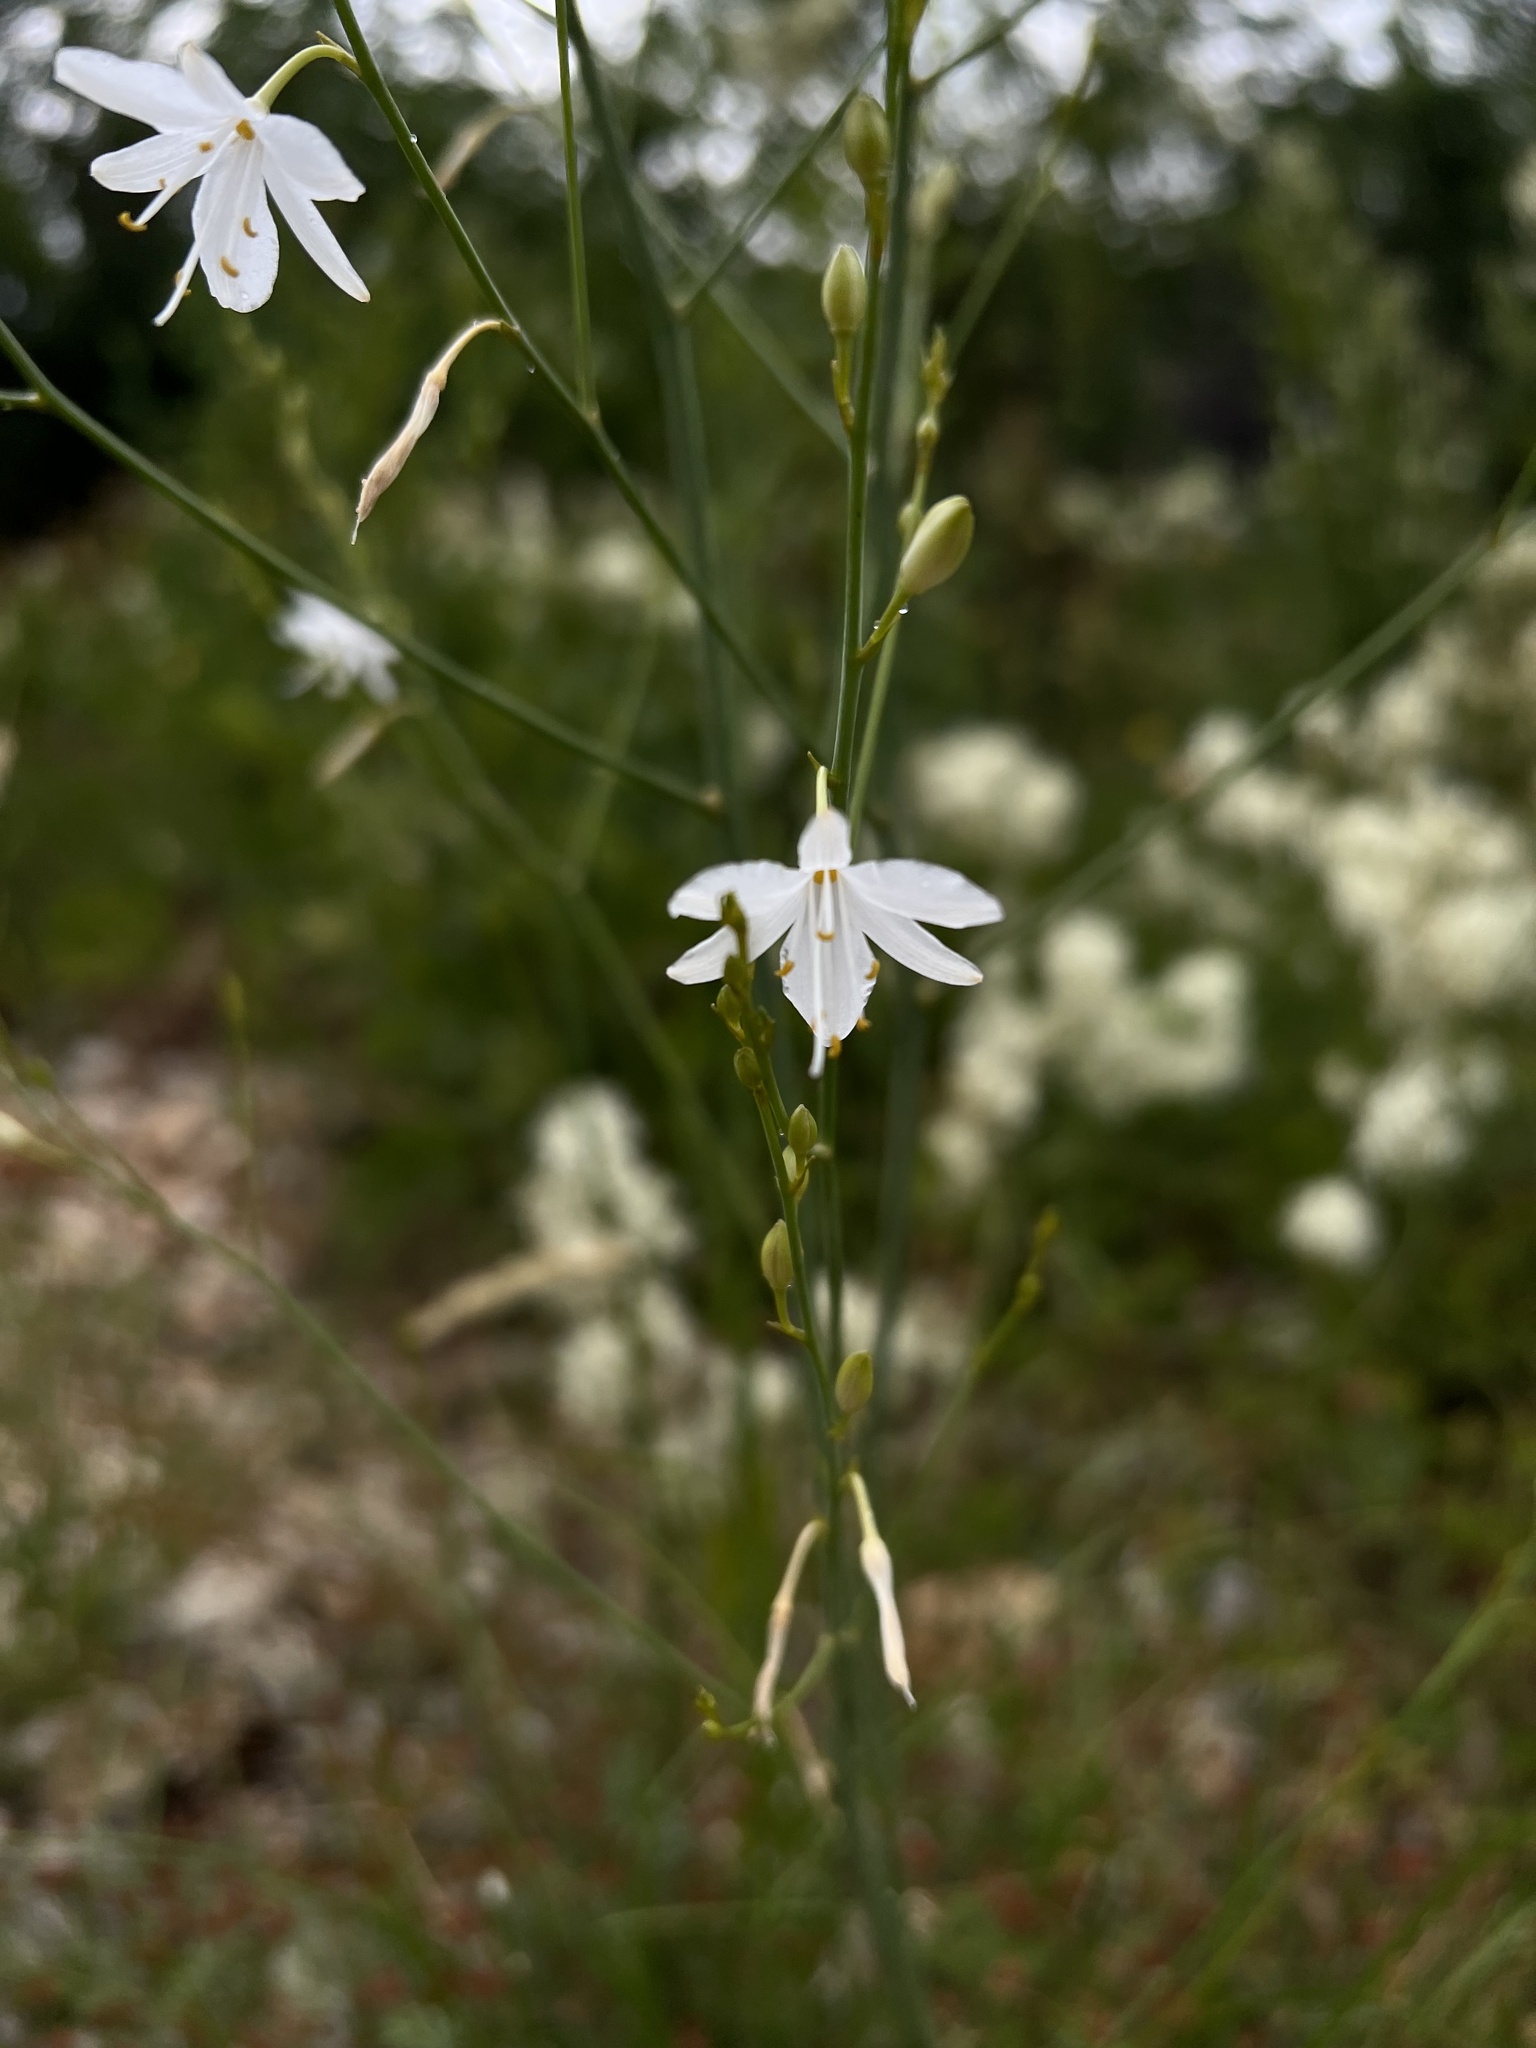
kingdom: Plantae
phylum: Tracheophyta
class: Liliopsida
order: Asparagales
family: Asparagaceae
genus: Anthericum
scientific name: Anthericum ramosum
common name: Branched st. bernard's-lily
